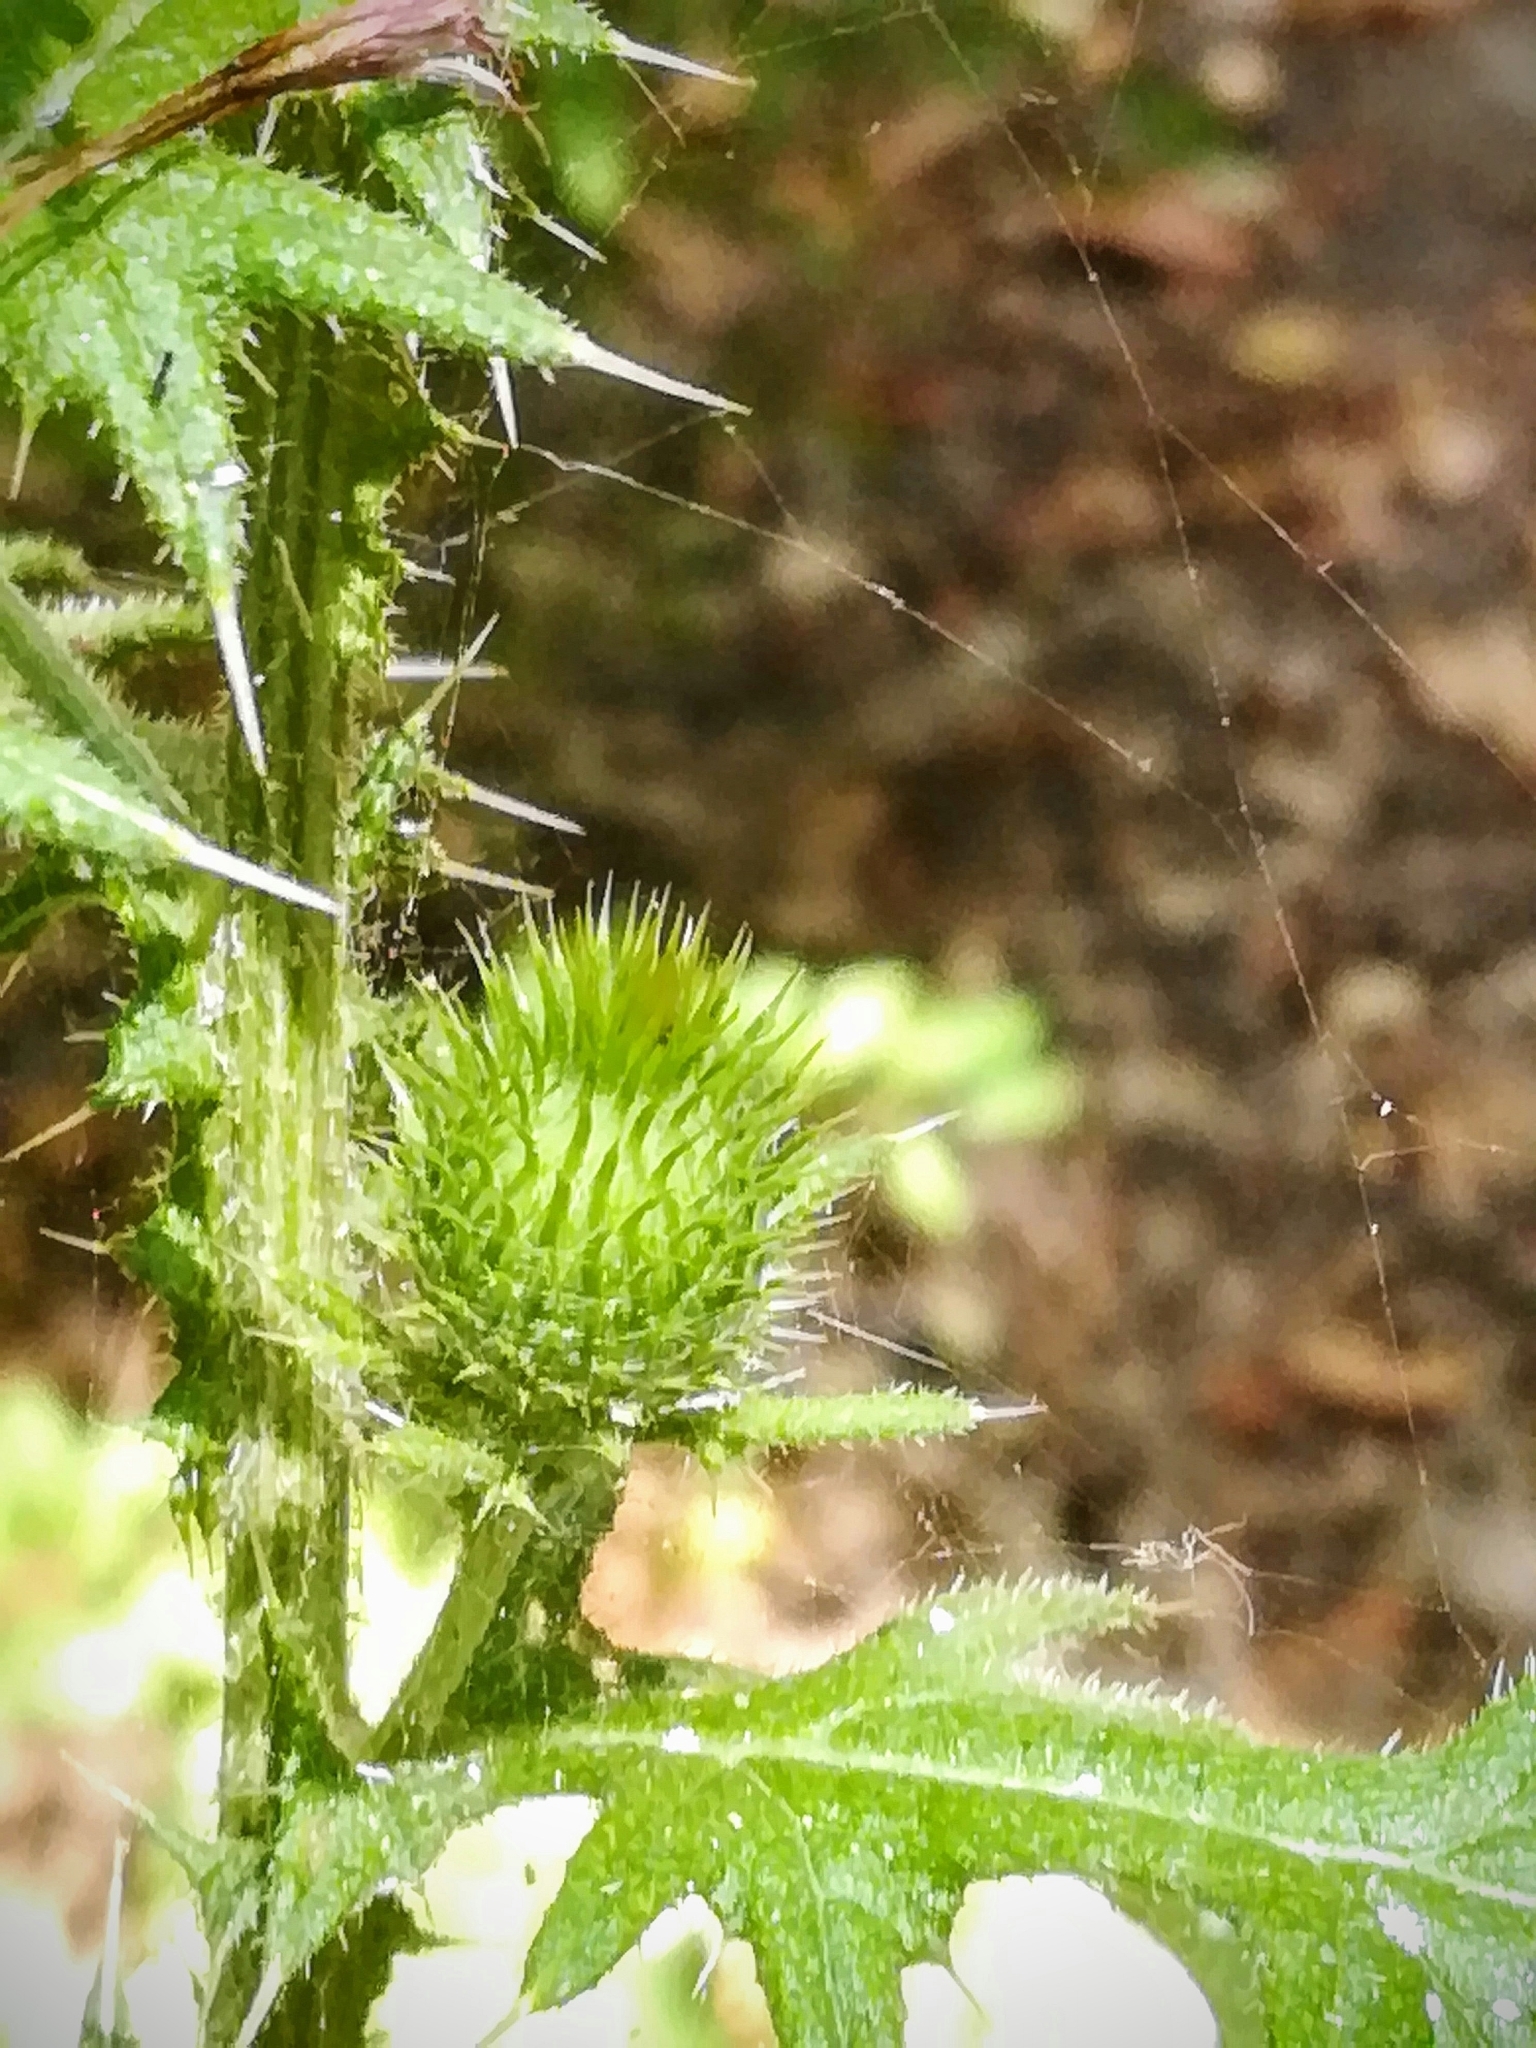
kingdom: Plantae
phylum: Tracheophyta
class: Magnoliopsida
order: Asterales
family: Asteraceae
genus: Cirsium
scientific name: Cirsium vulgare
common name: Bull thistle
